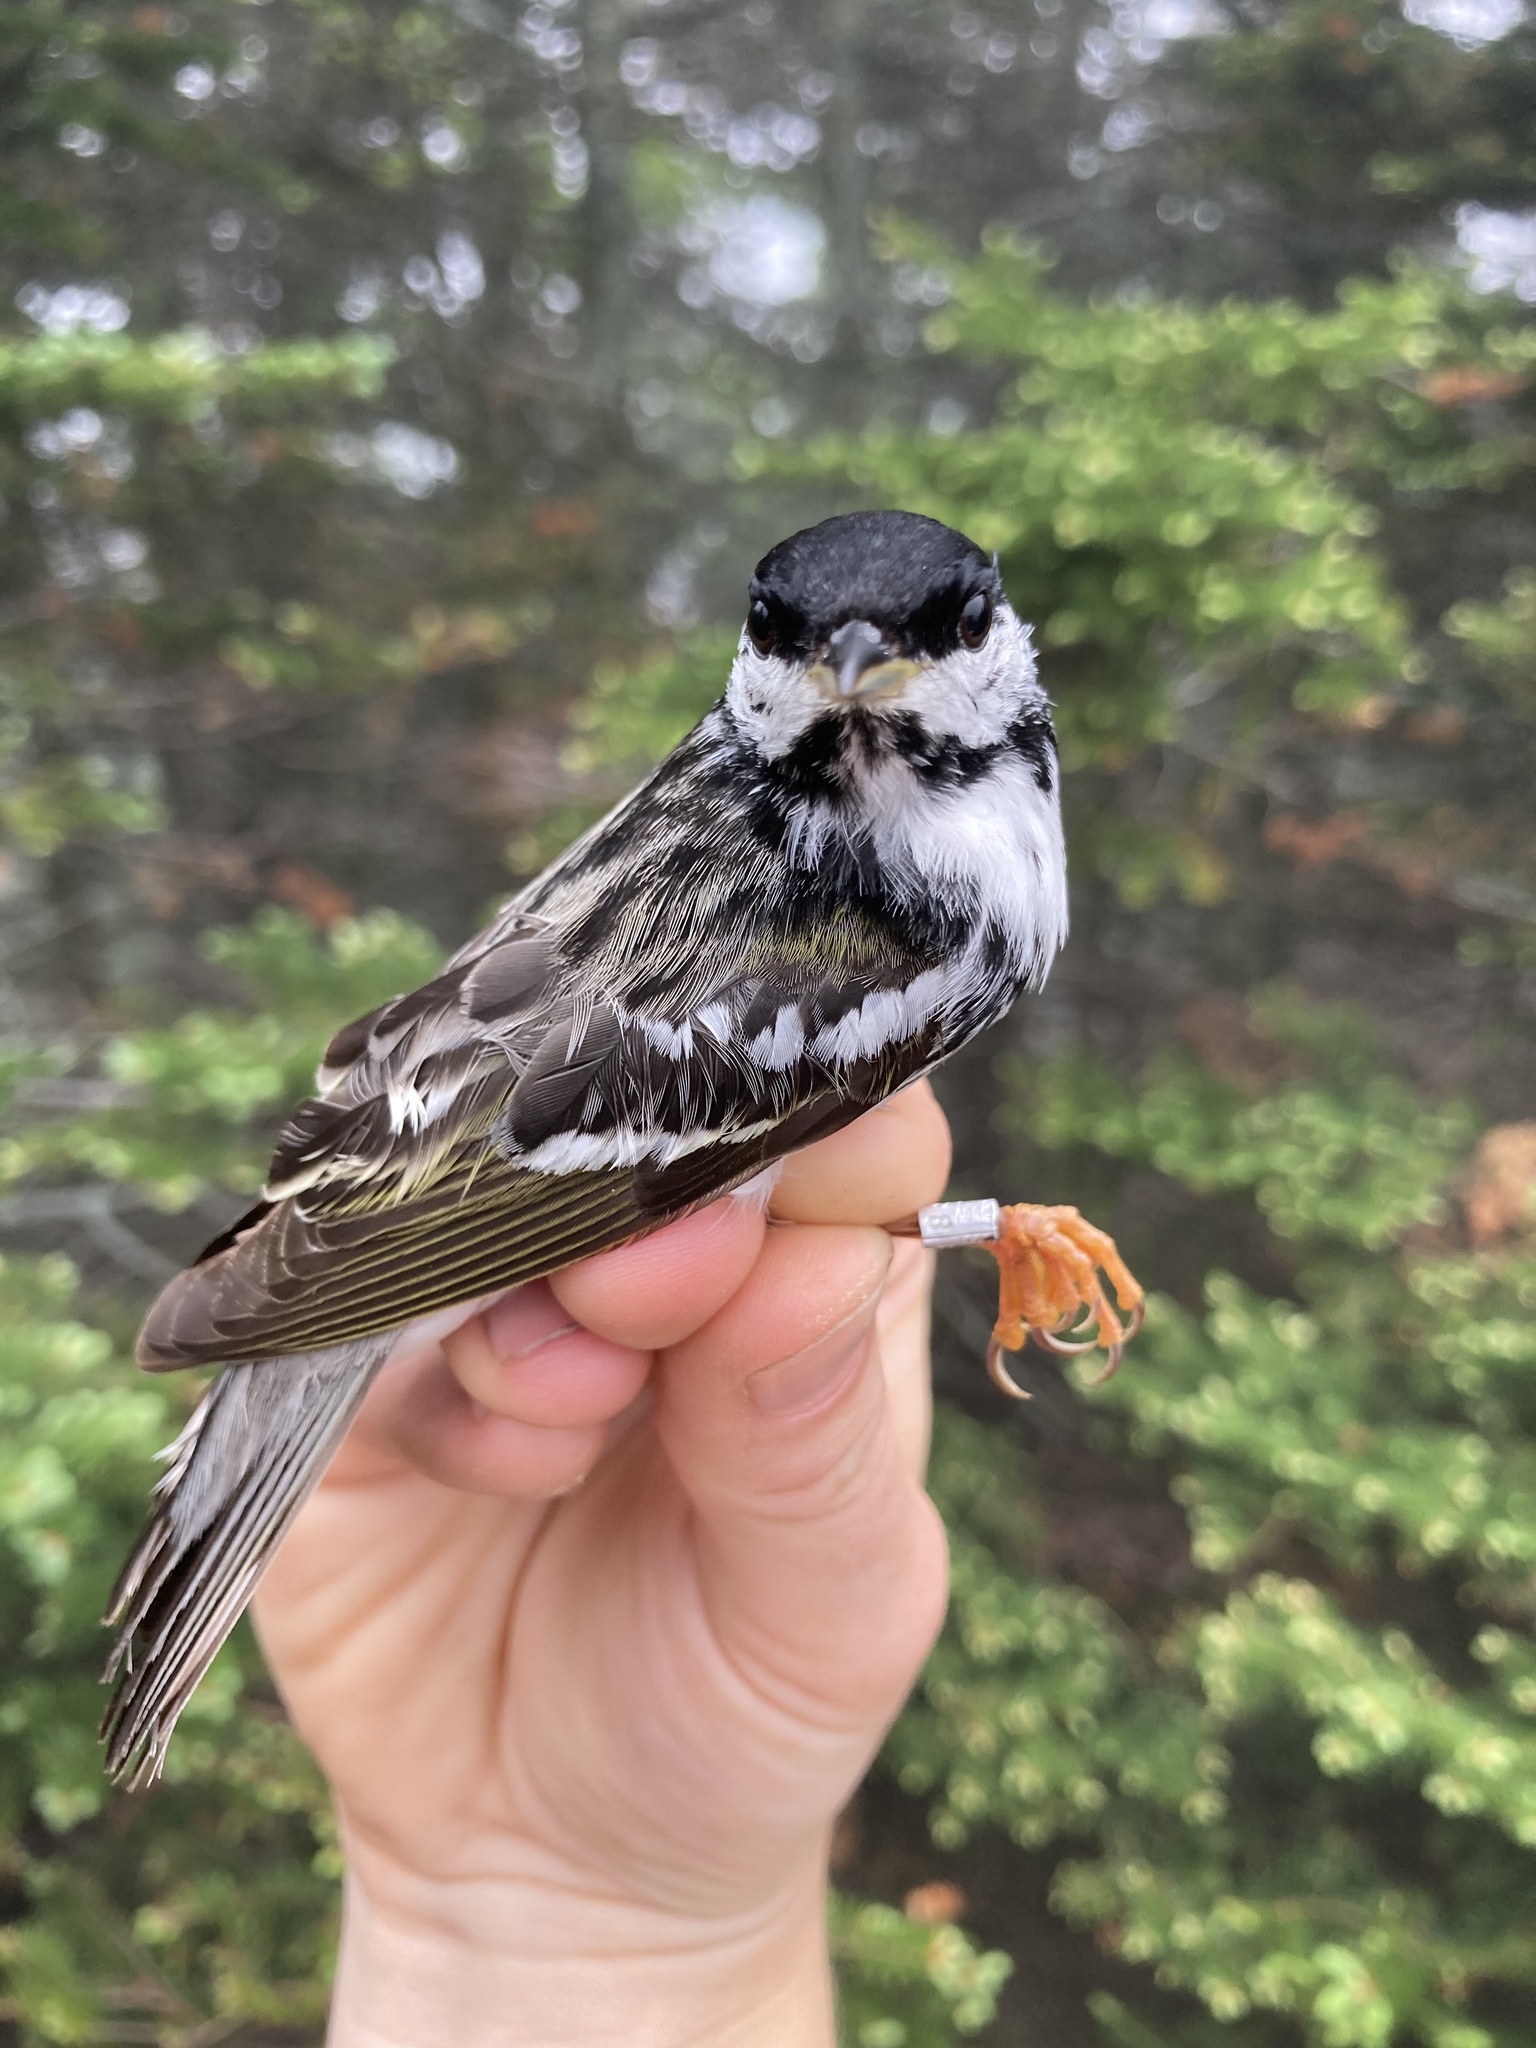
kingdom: Animalia
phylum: Chordata
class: Aves
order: Passeriformes
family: Parulidae
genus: Setophaga
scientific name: Setophaga striata
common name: Blackpoll warbler
